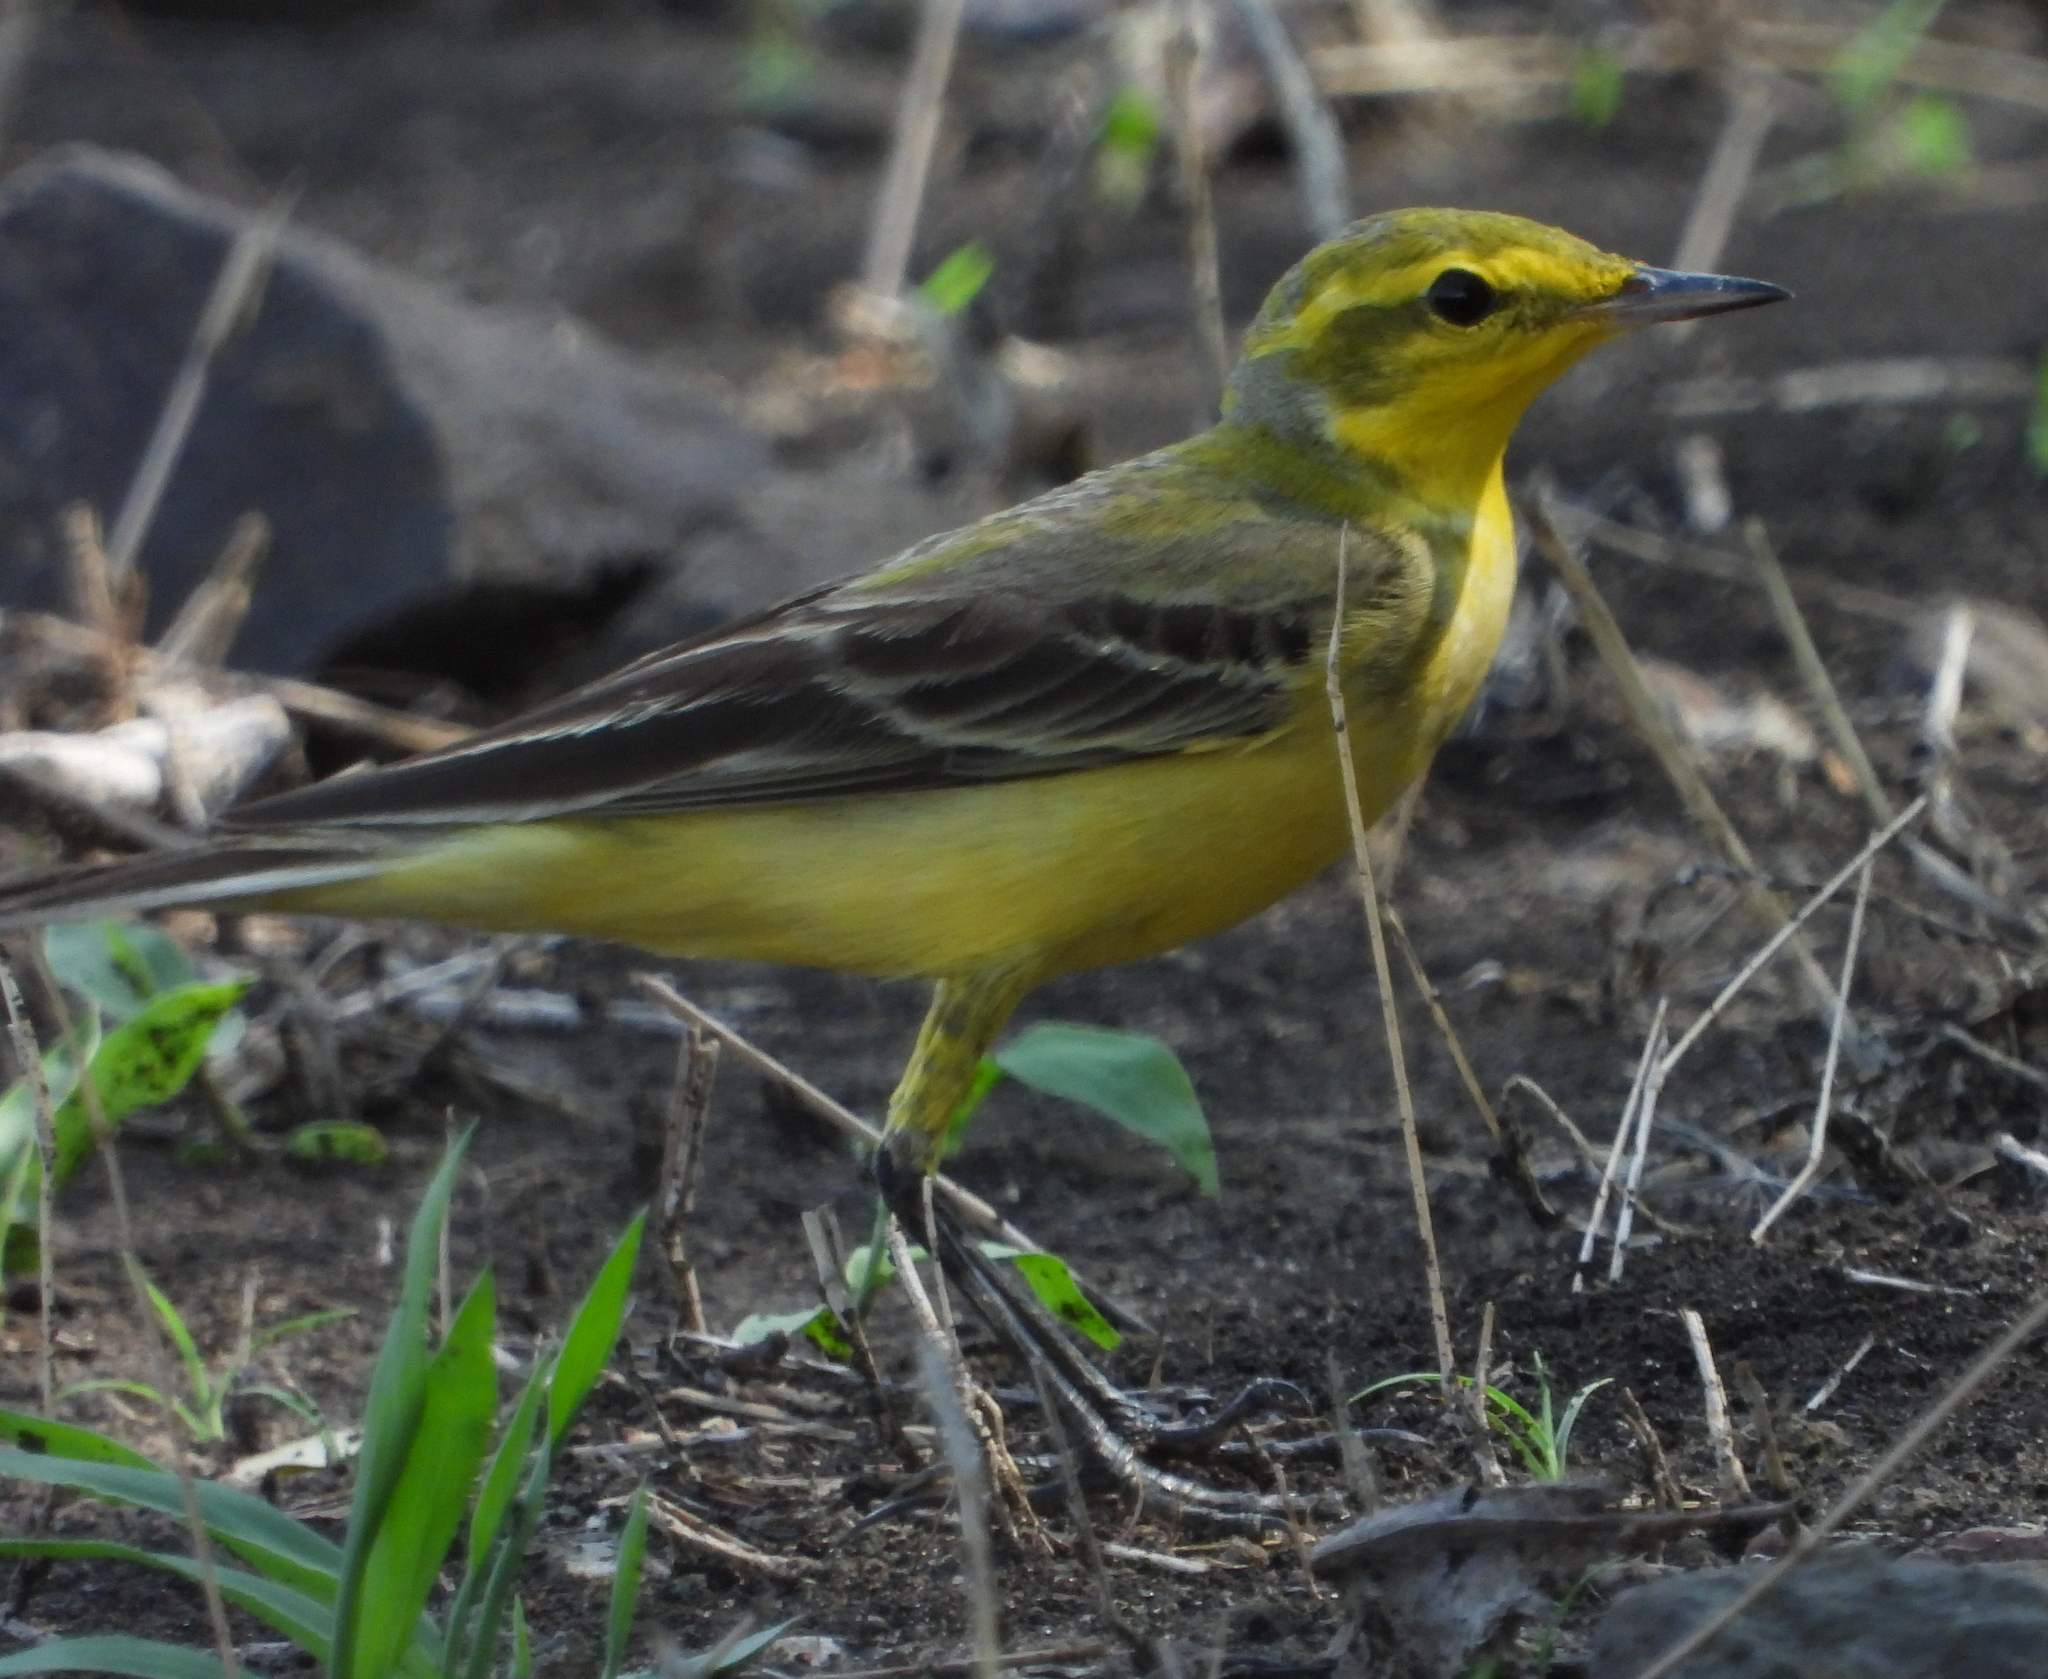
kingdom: Animalia
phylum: Chordata
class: Aves
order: Passeriformes
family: Motacillidae
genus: Motacilla
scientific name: Motacilla flava
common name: Western yellow wagtail
